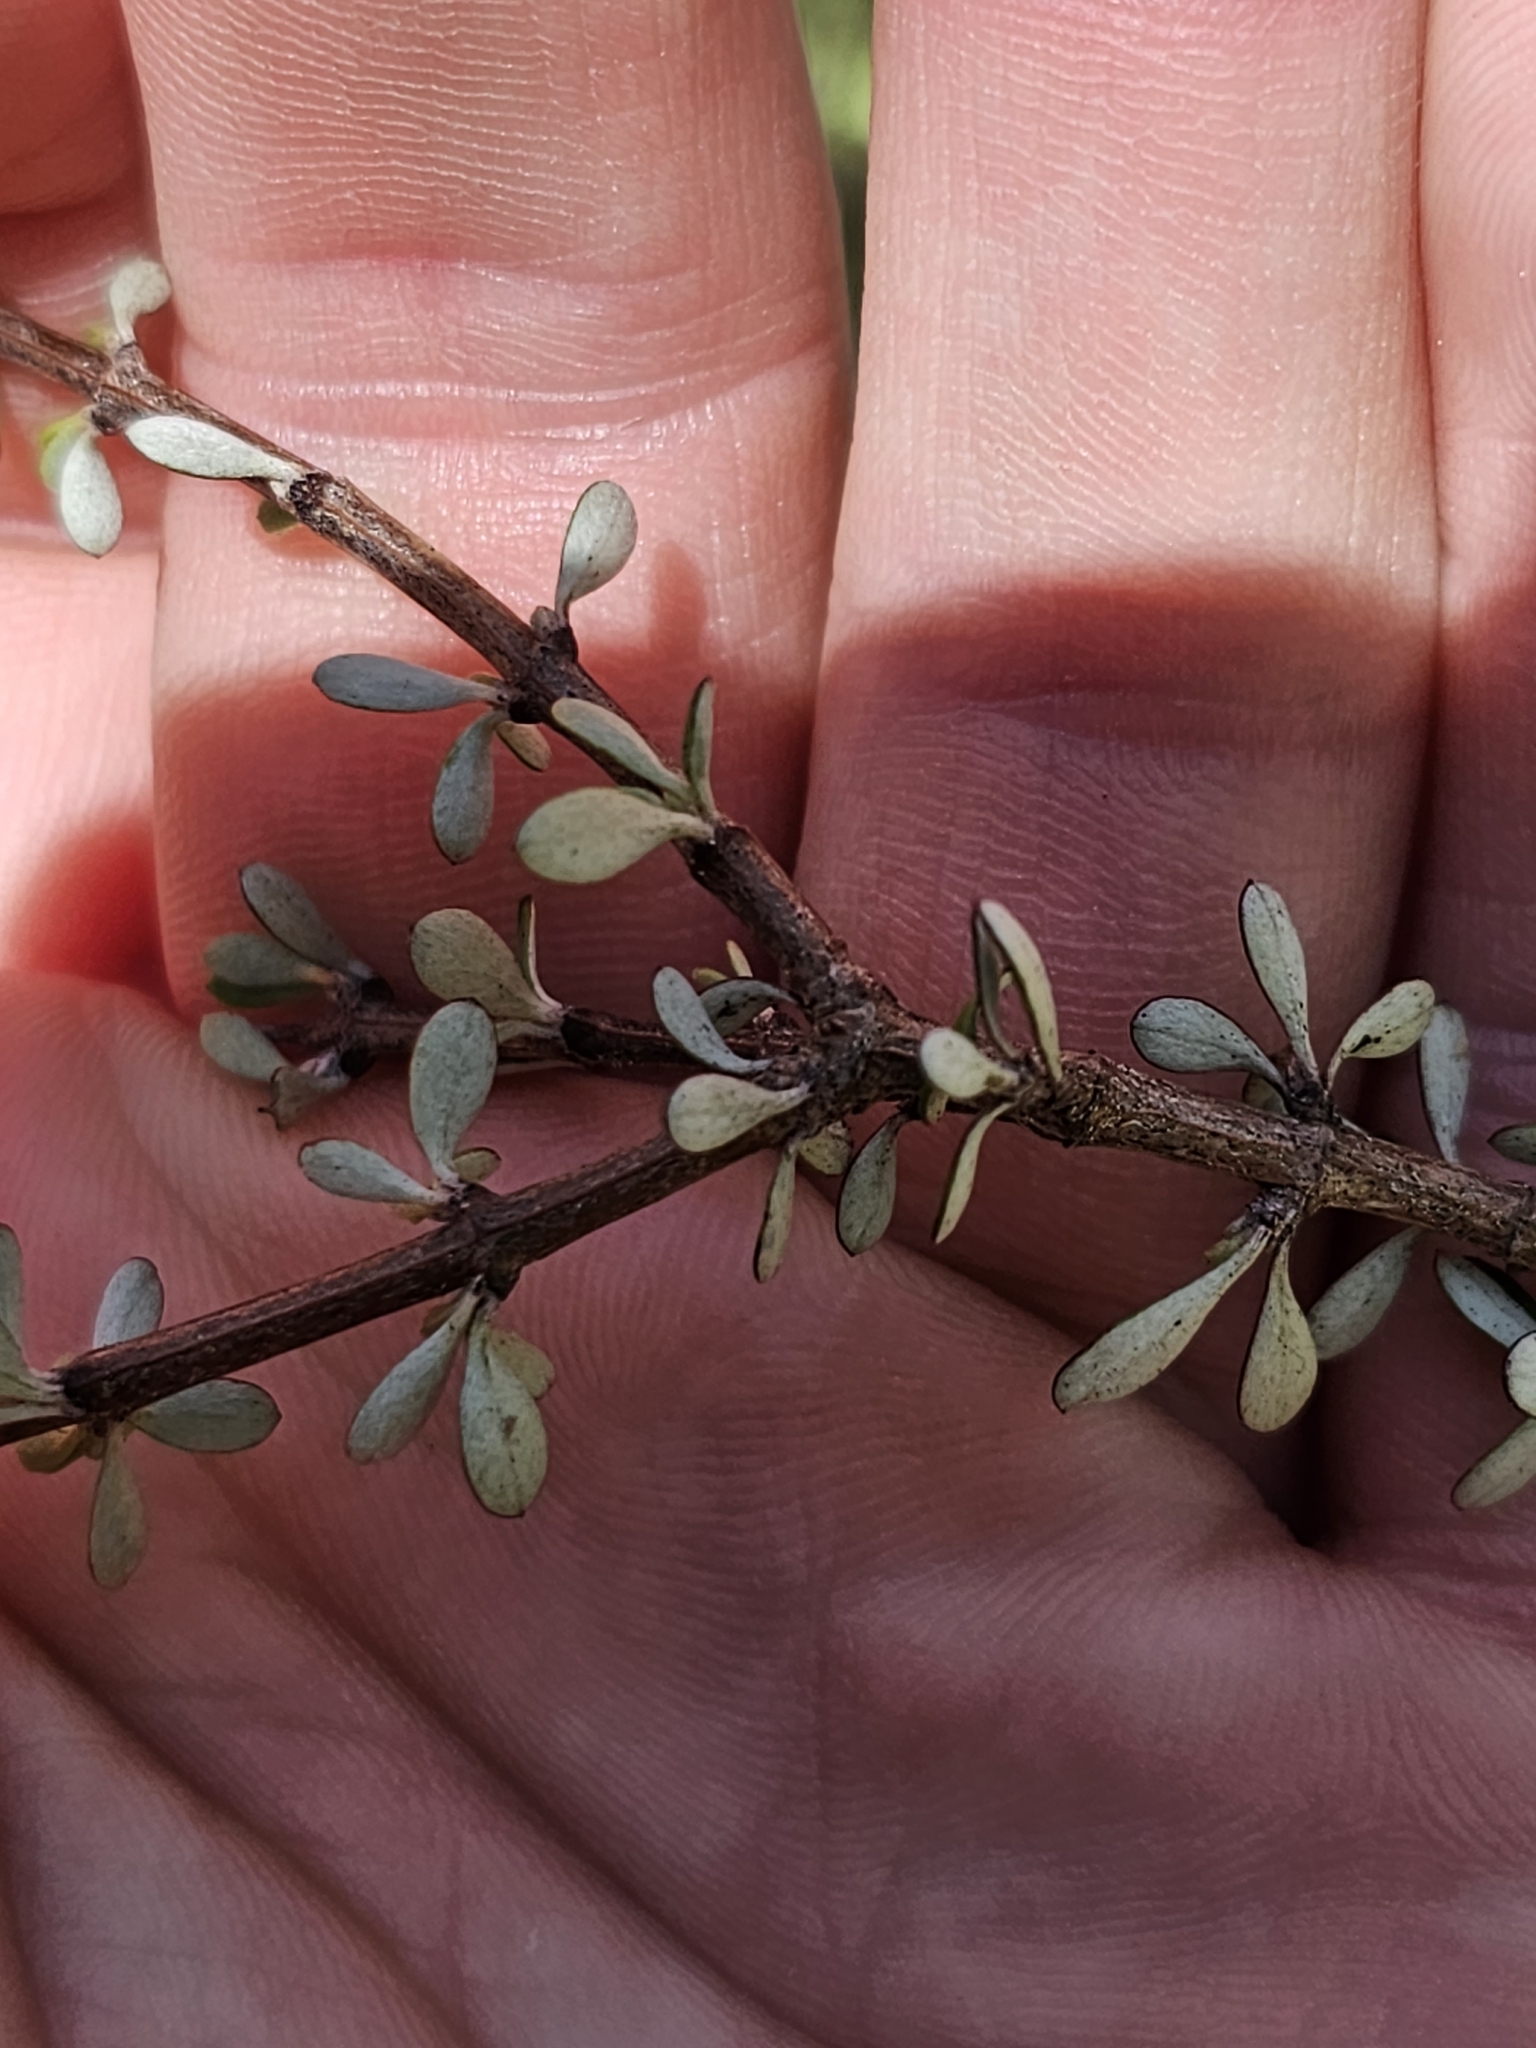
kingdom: Plantae
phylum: Tracheophyta
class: Magnoliopsida
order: Asterales
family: Asteraceae
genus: Olearia
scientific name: Olearia virgata
